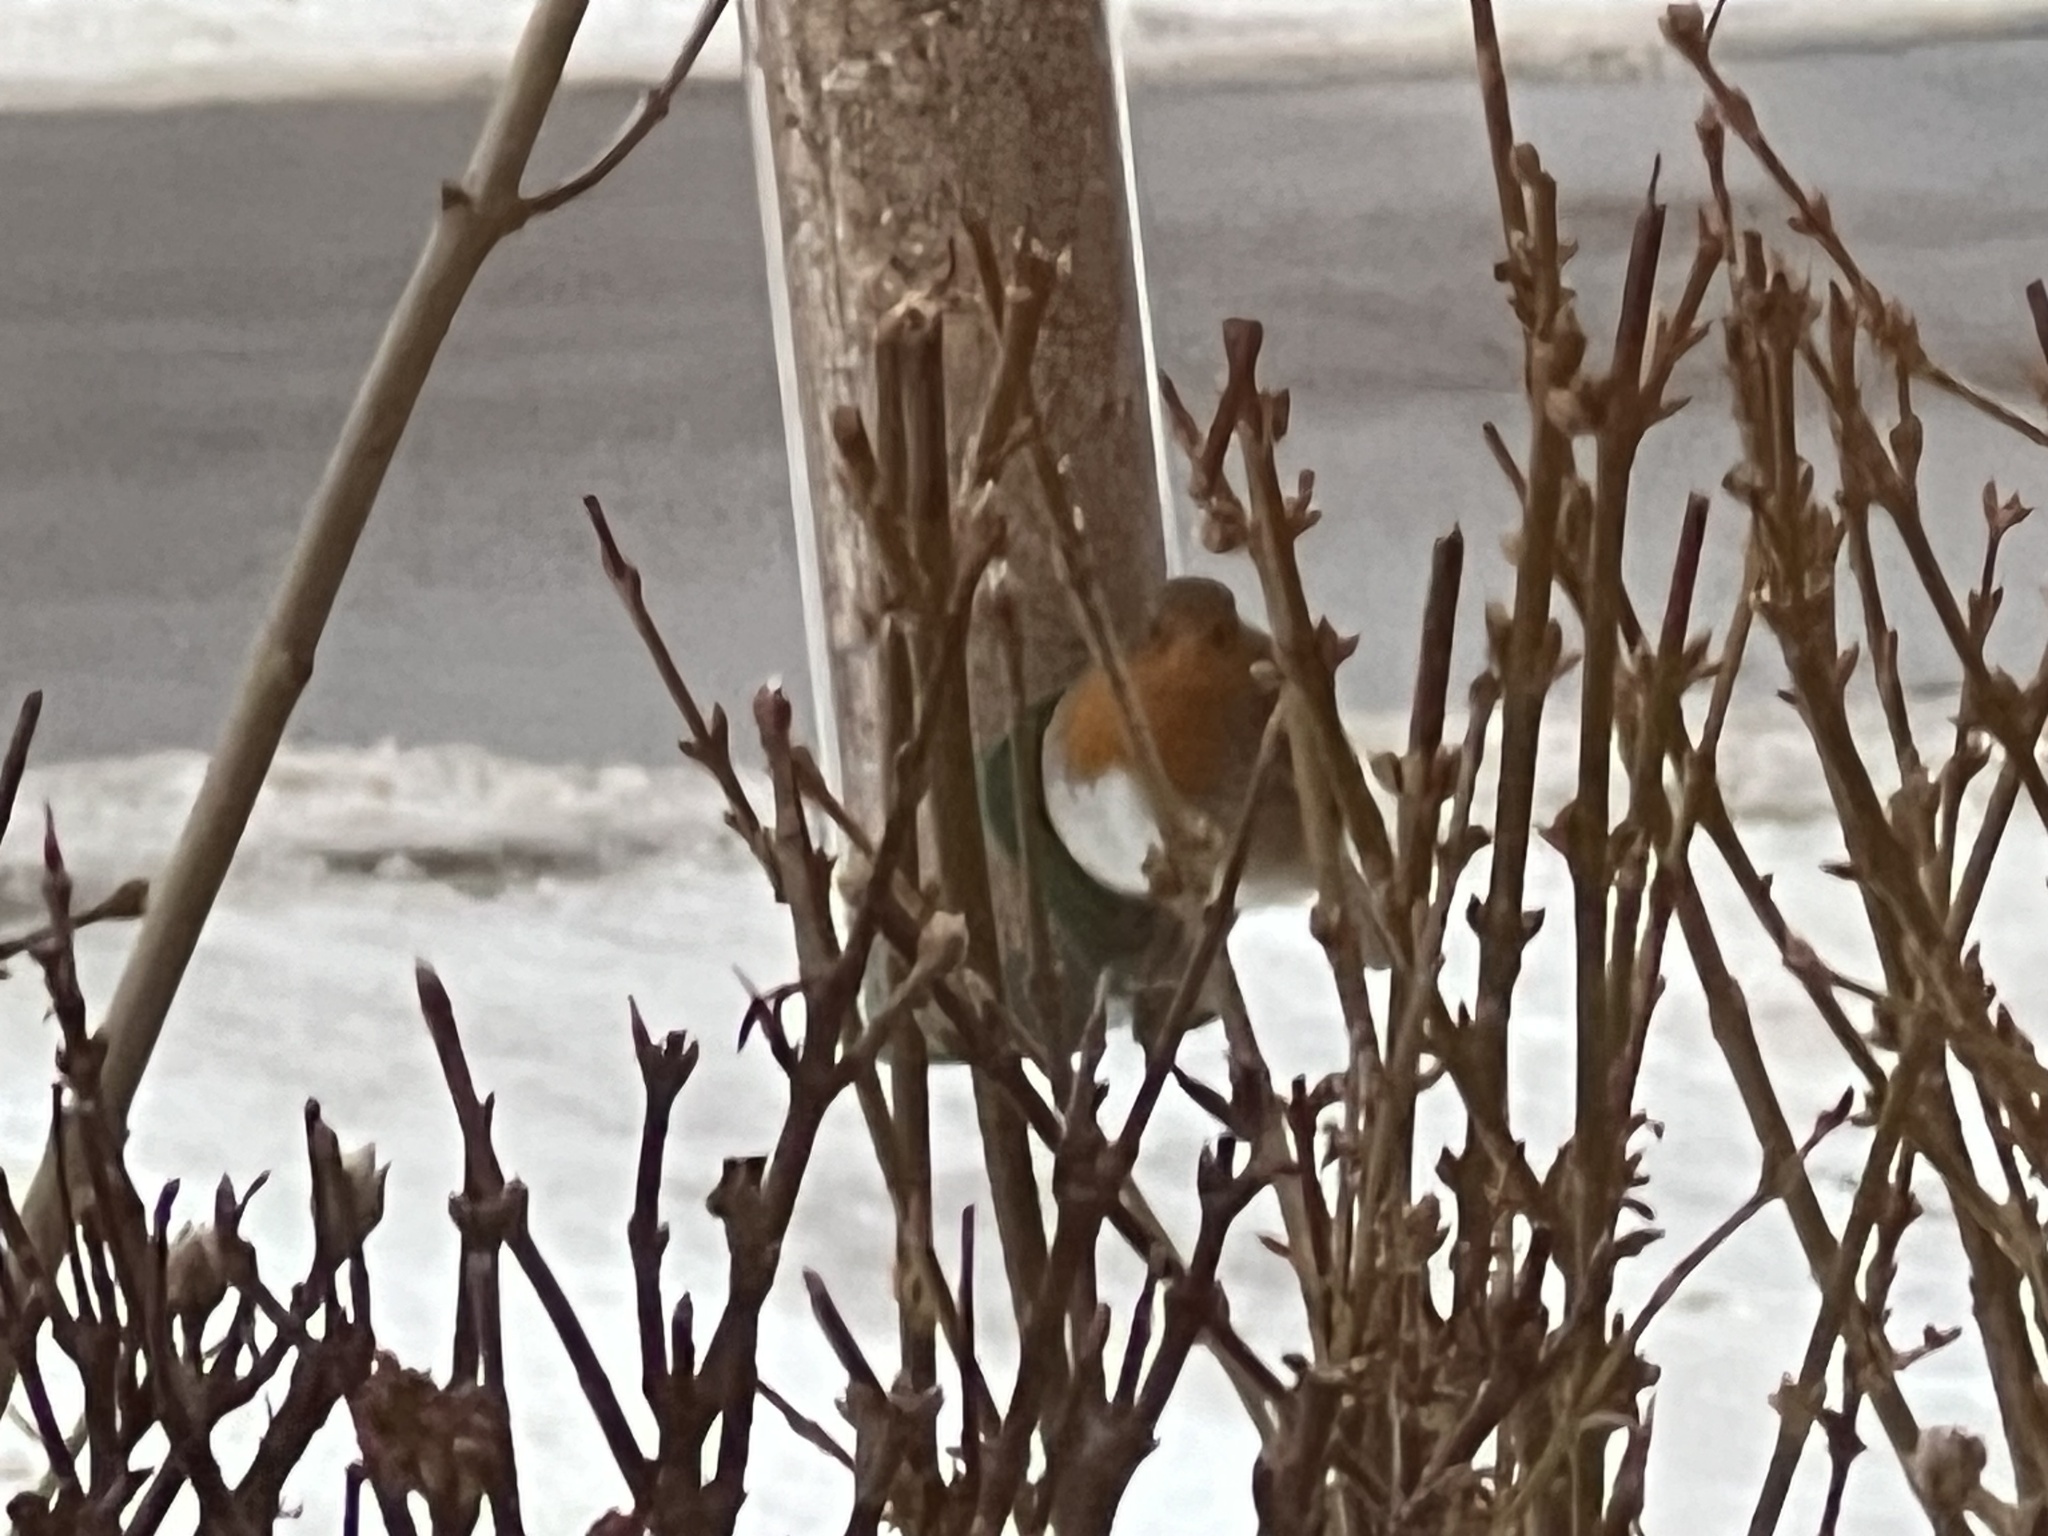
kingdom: Animalia
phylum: Chordata
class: Aves
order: Passeriformes
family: Muscicapidae
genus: Erithacus
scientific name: Erithacus rubecula
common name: European robin
